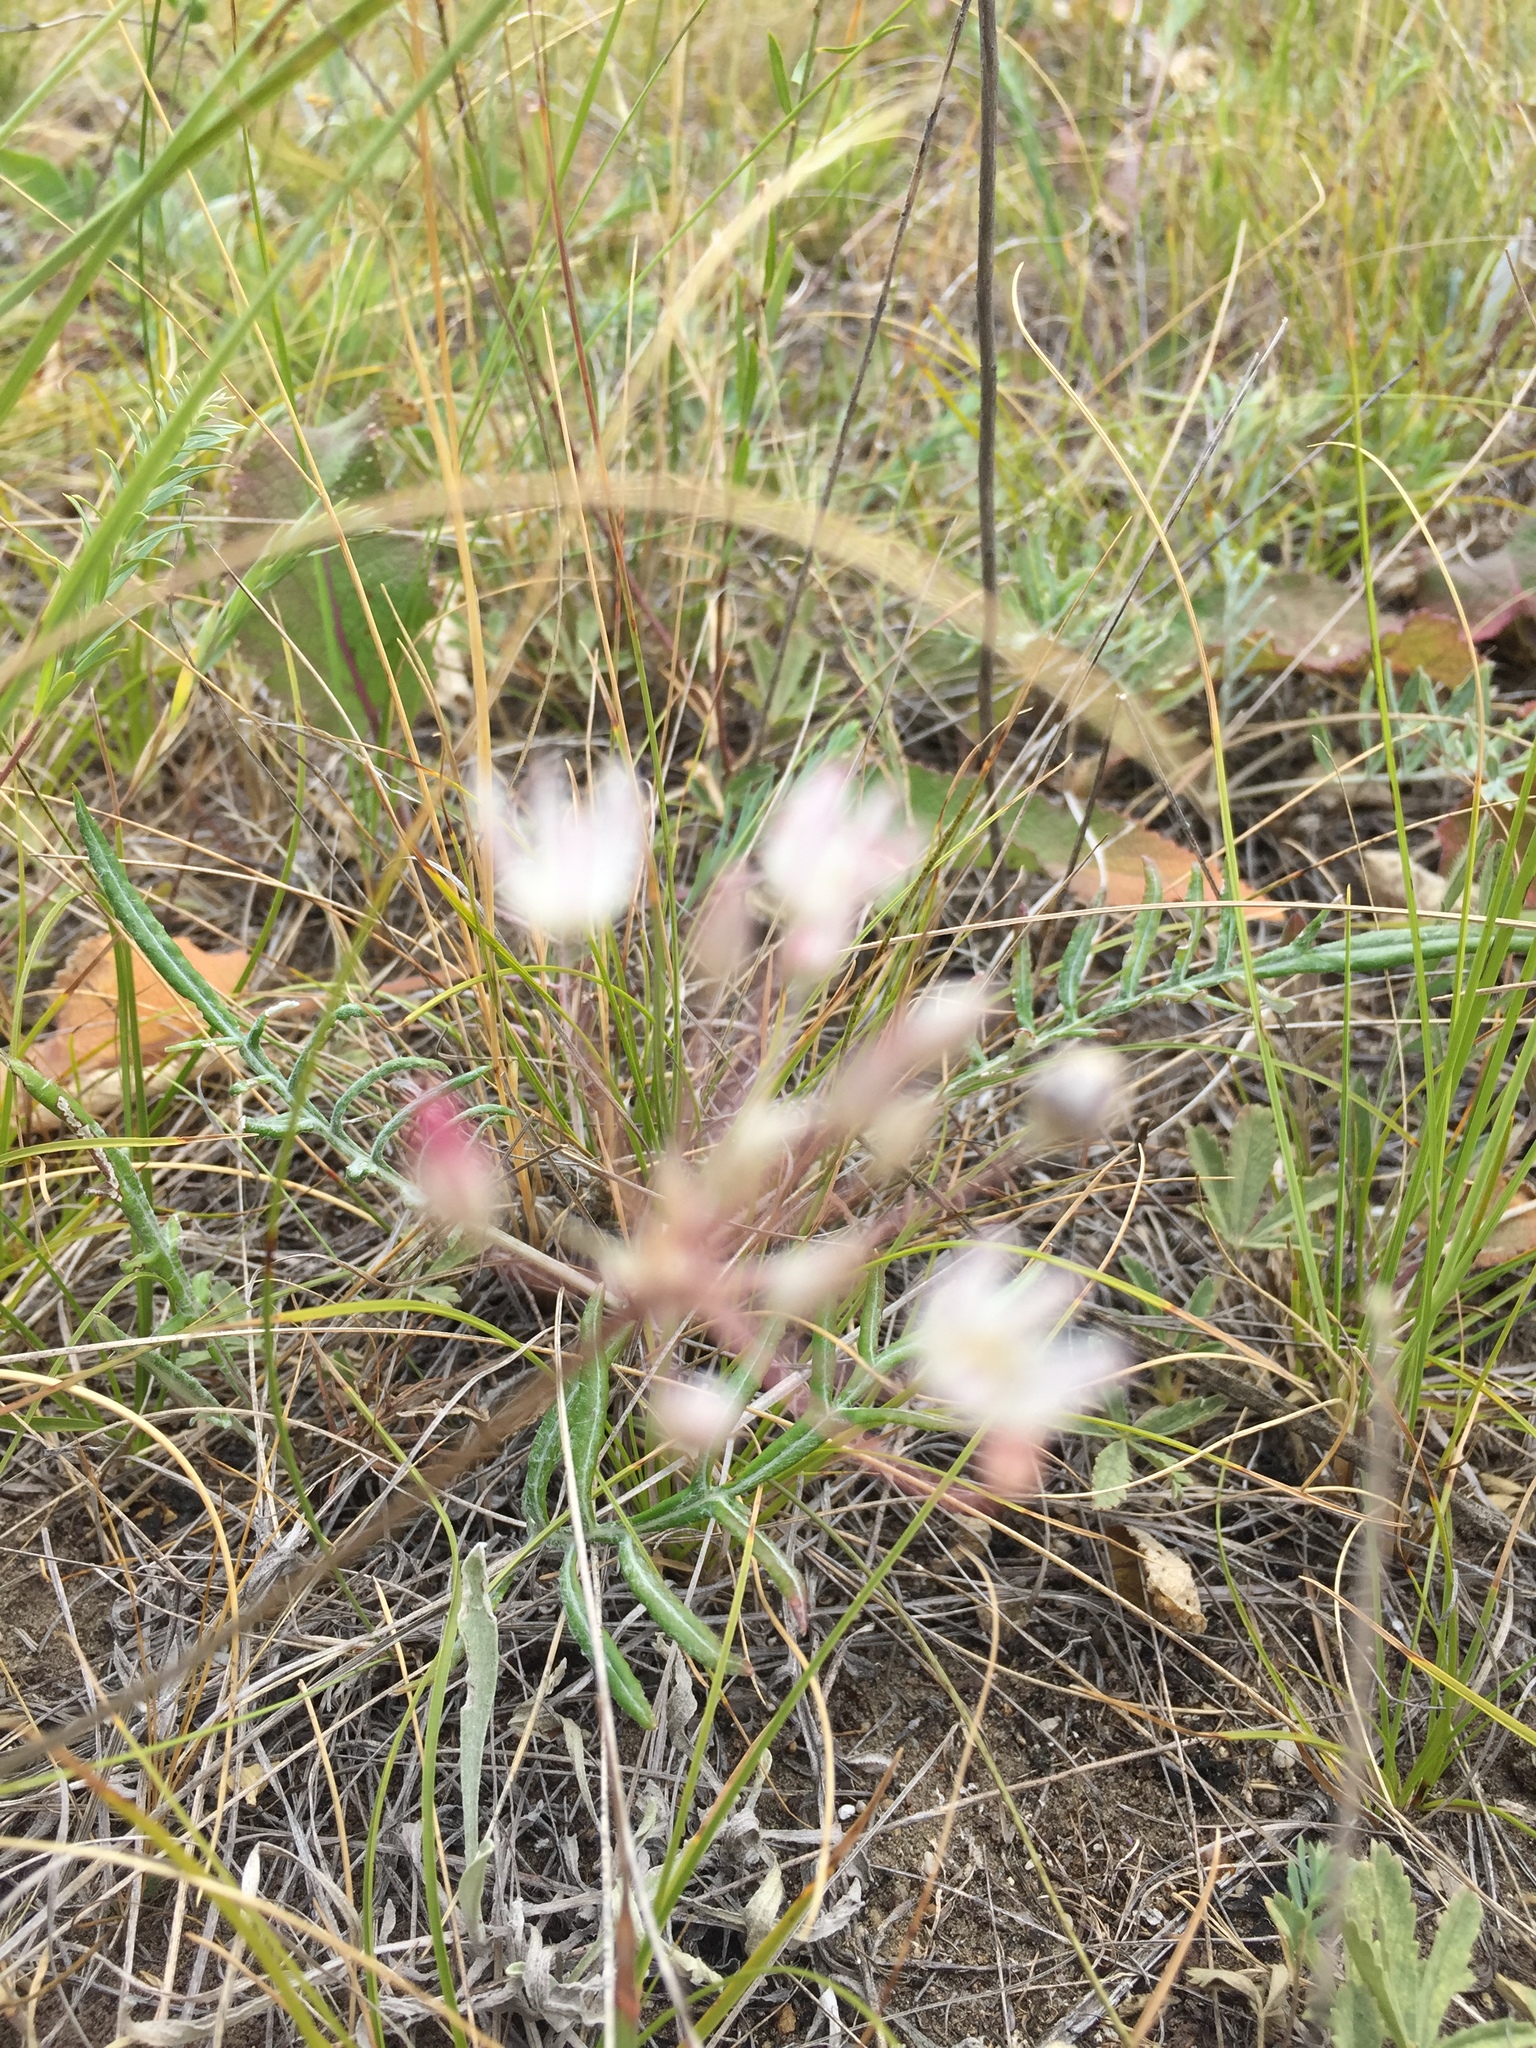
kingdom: Plantae
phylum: Tracheophyta
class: Liliopsida
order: Asparagales
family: Amaryllidaceae
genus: Allium
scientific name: Allium inaequale
